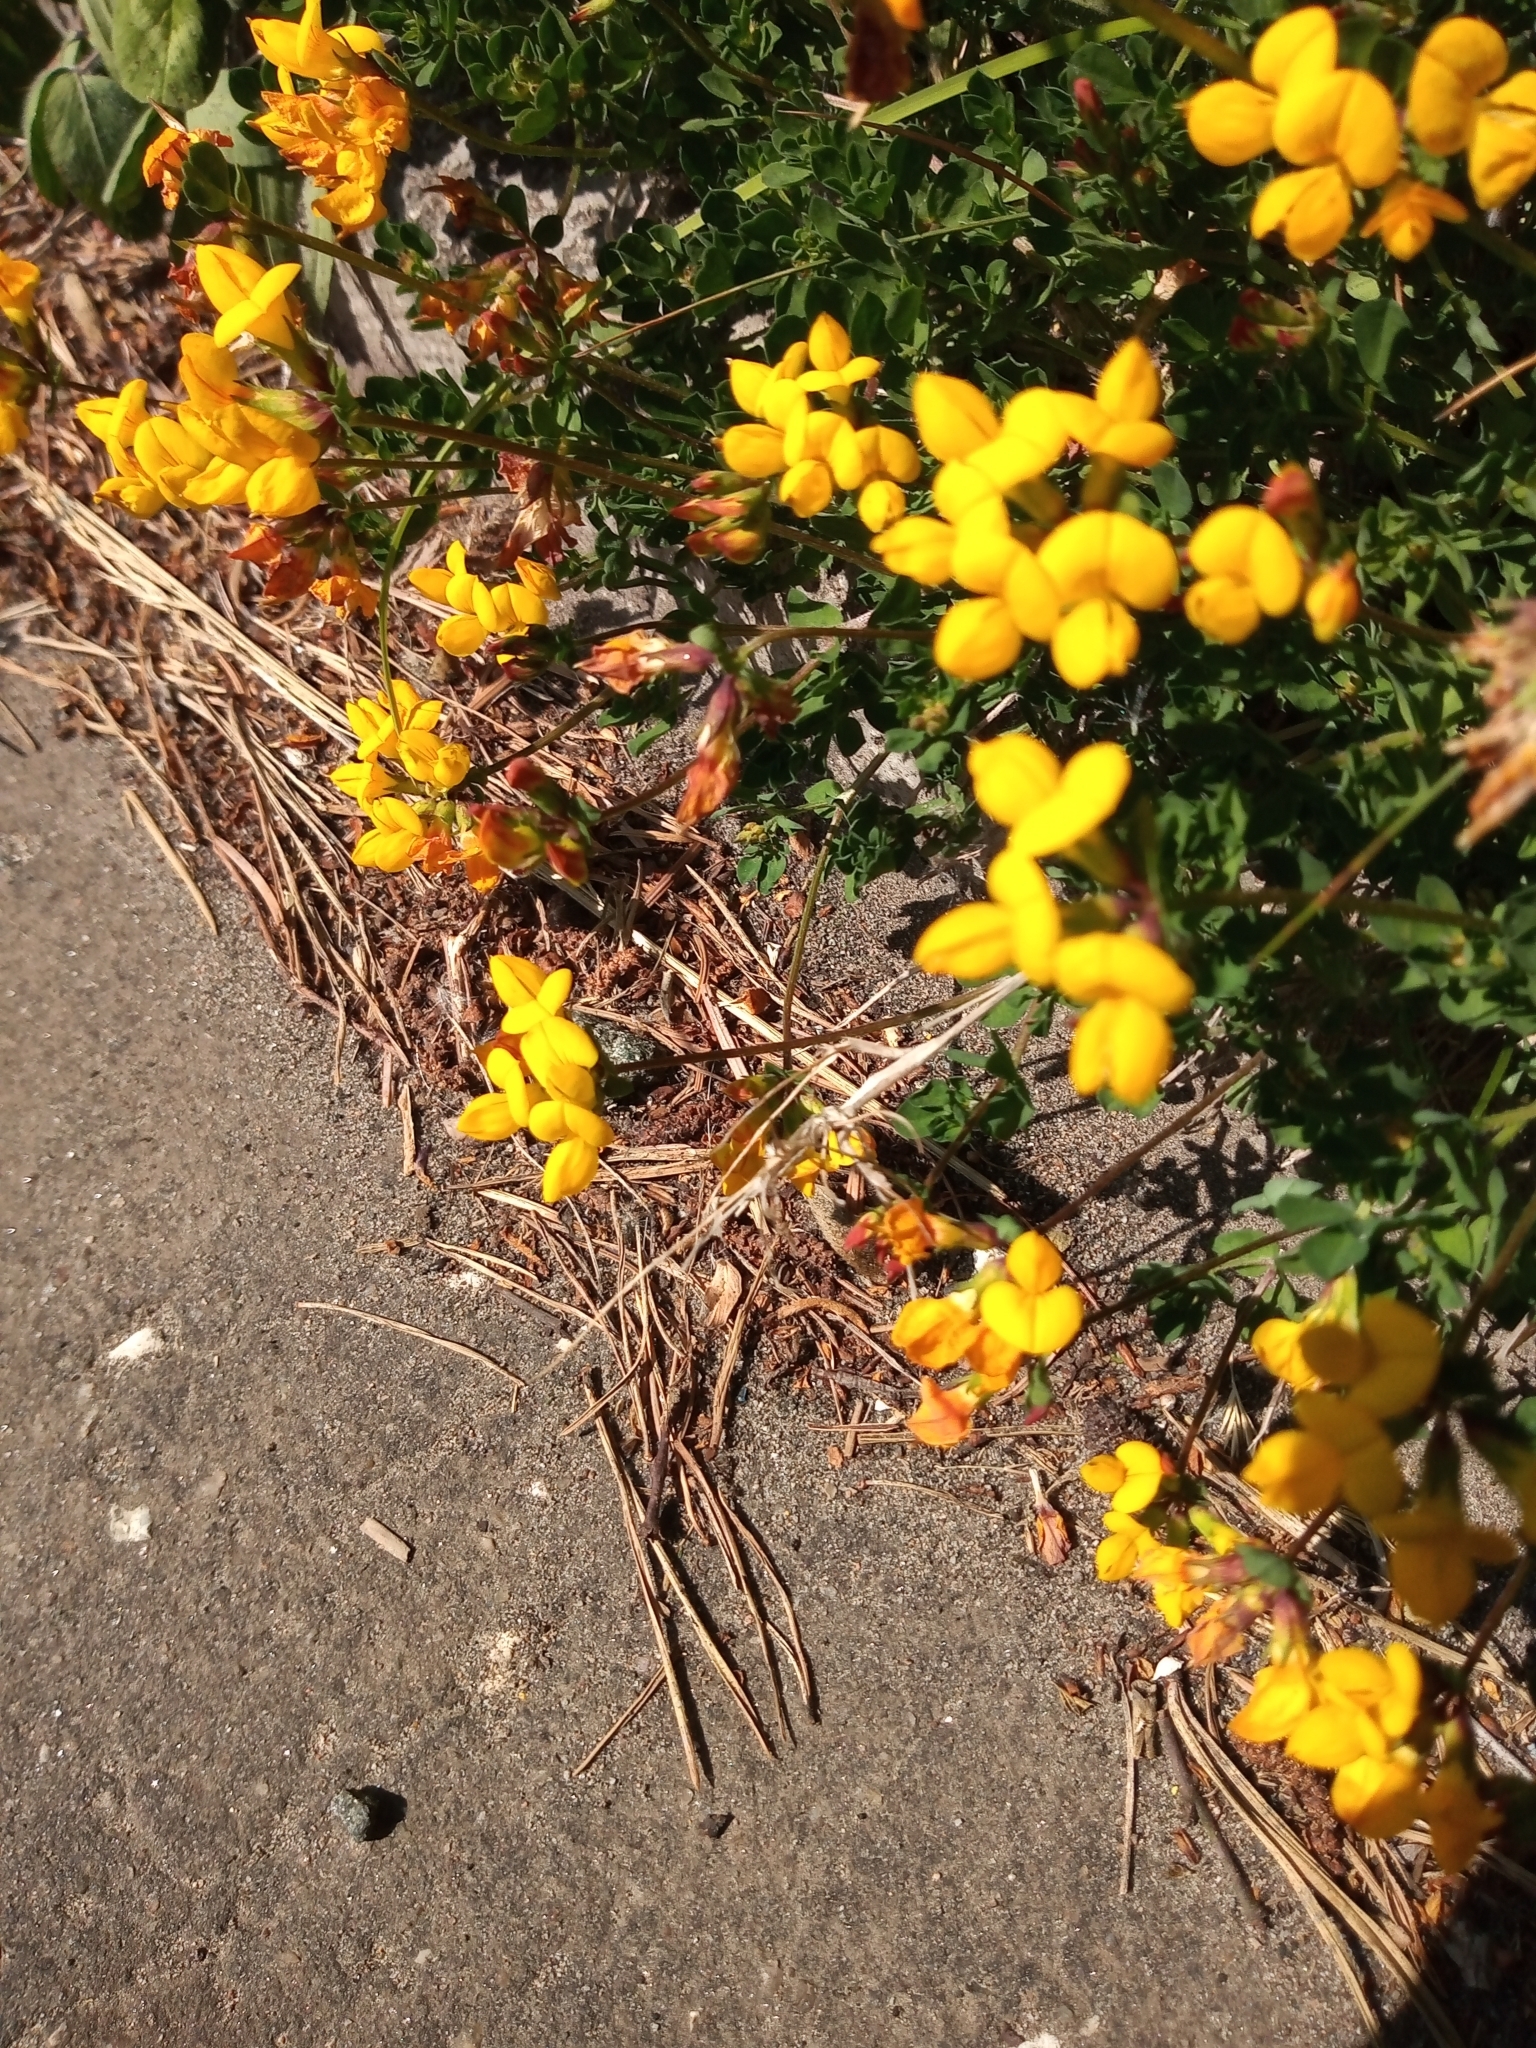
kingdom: Plantae
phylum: Tracheophyta
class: Magnoliopsida
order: Fabales
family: Fabaceae
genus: Lotus
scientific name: Lotus corniculatus
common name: Common bird's-foot-trefoil
